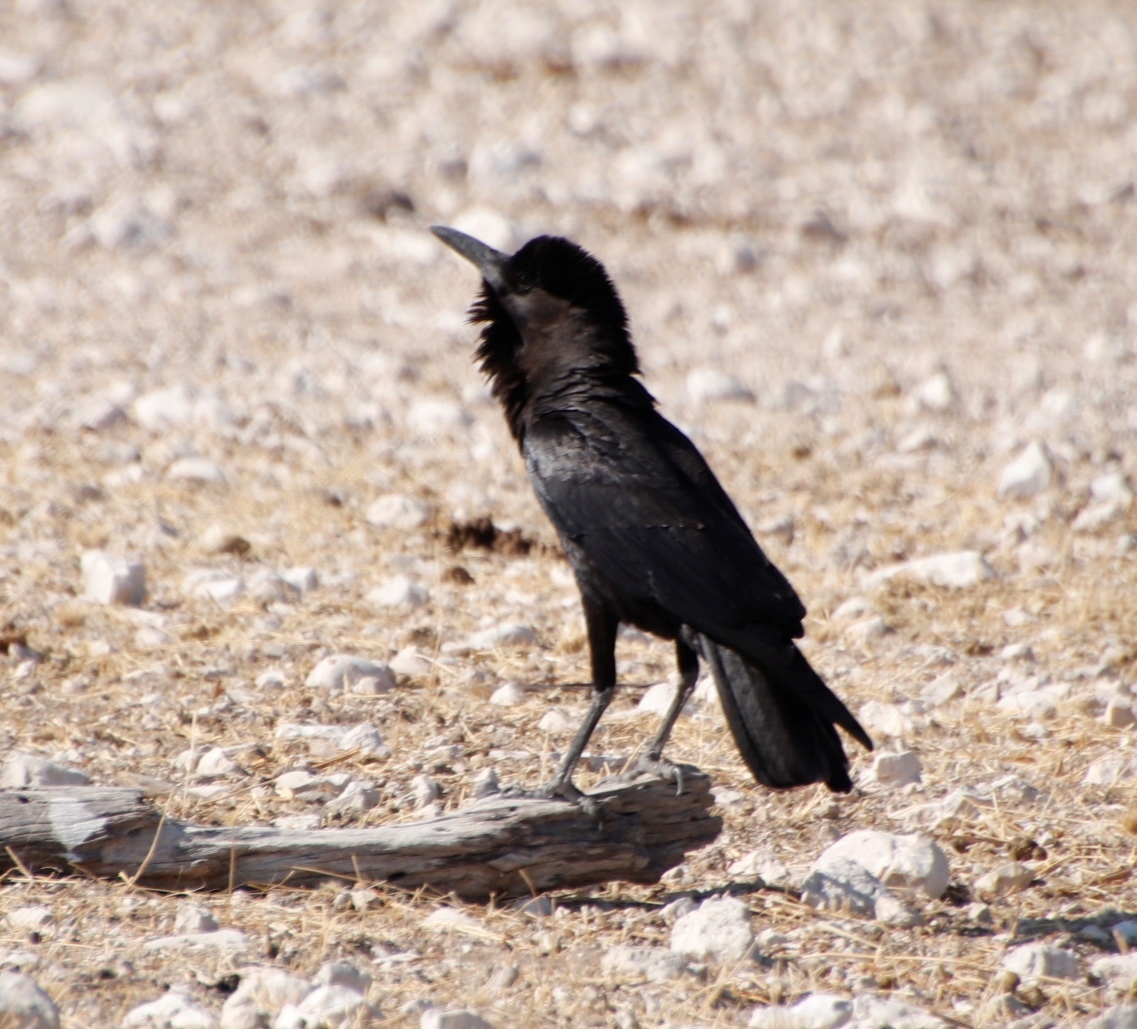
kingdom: Animalia
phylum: Chordata
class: Aves
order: Passeriformes
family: Corvidae
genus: Corvus
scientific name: Corvus capensis
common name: Cape crow
